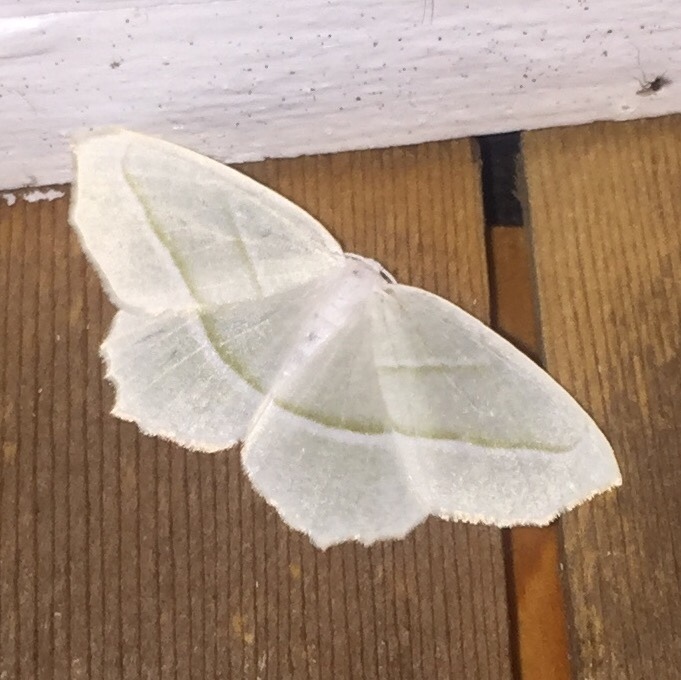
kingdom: Animalia
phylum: Arthropoda
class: Insecta
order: Lepidoptera
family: Geometridae
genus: Campaea
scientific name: Campaea perlata
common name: Fringed looper
